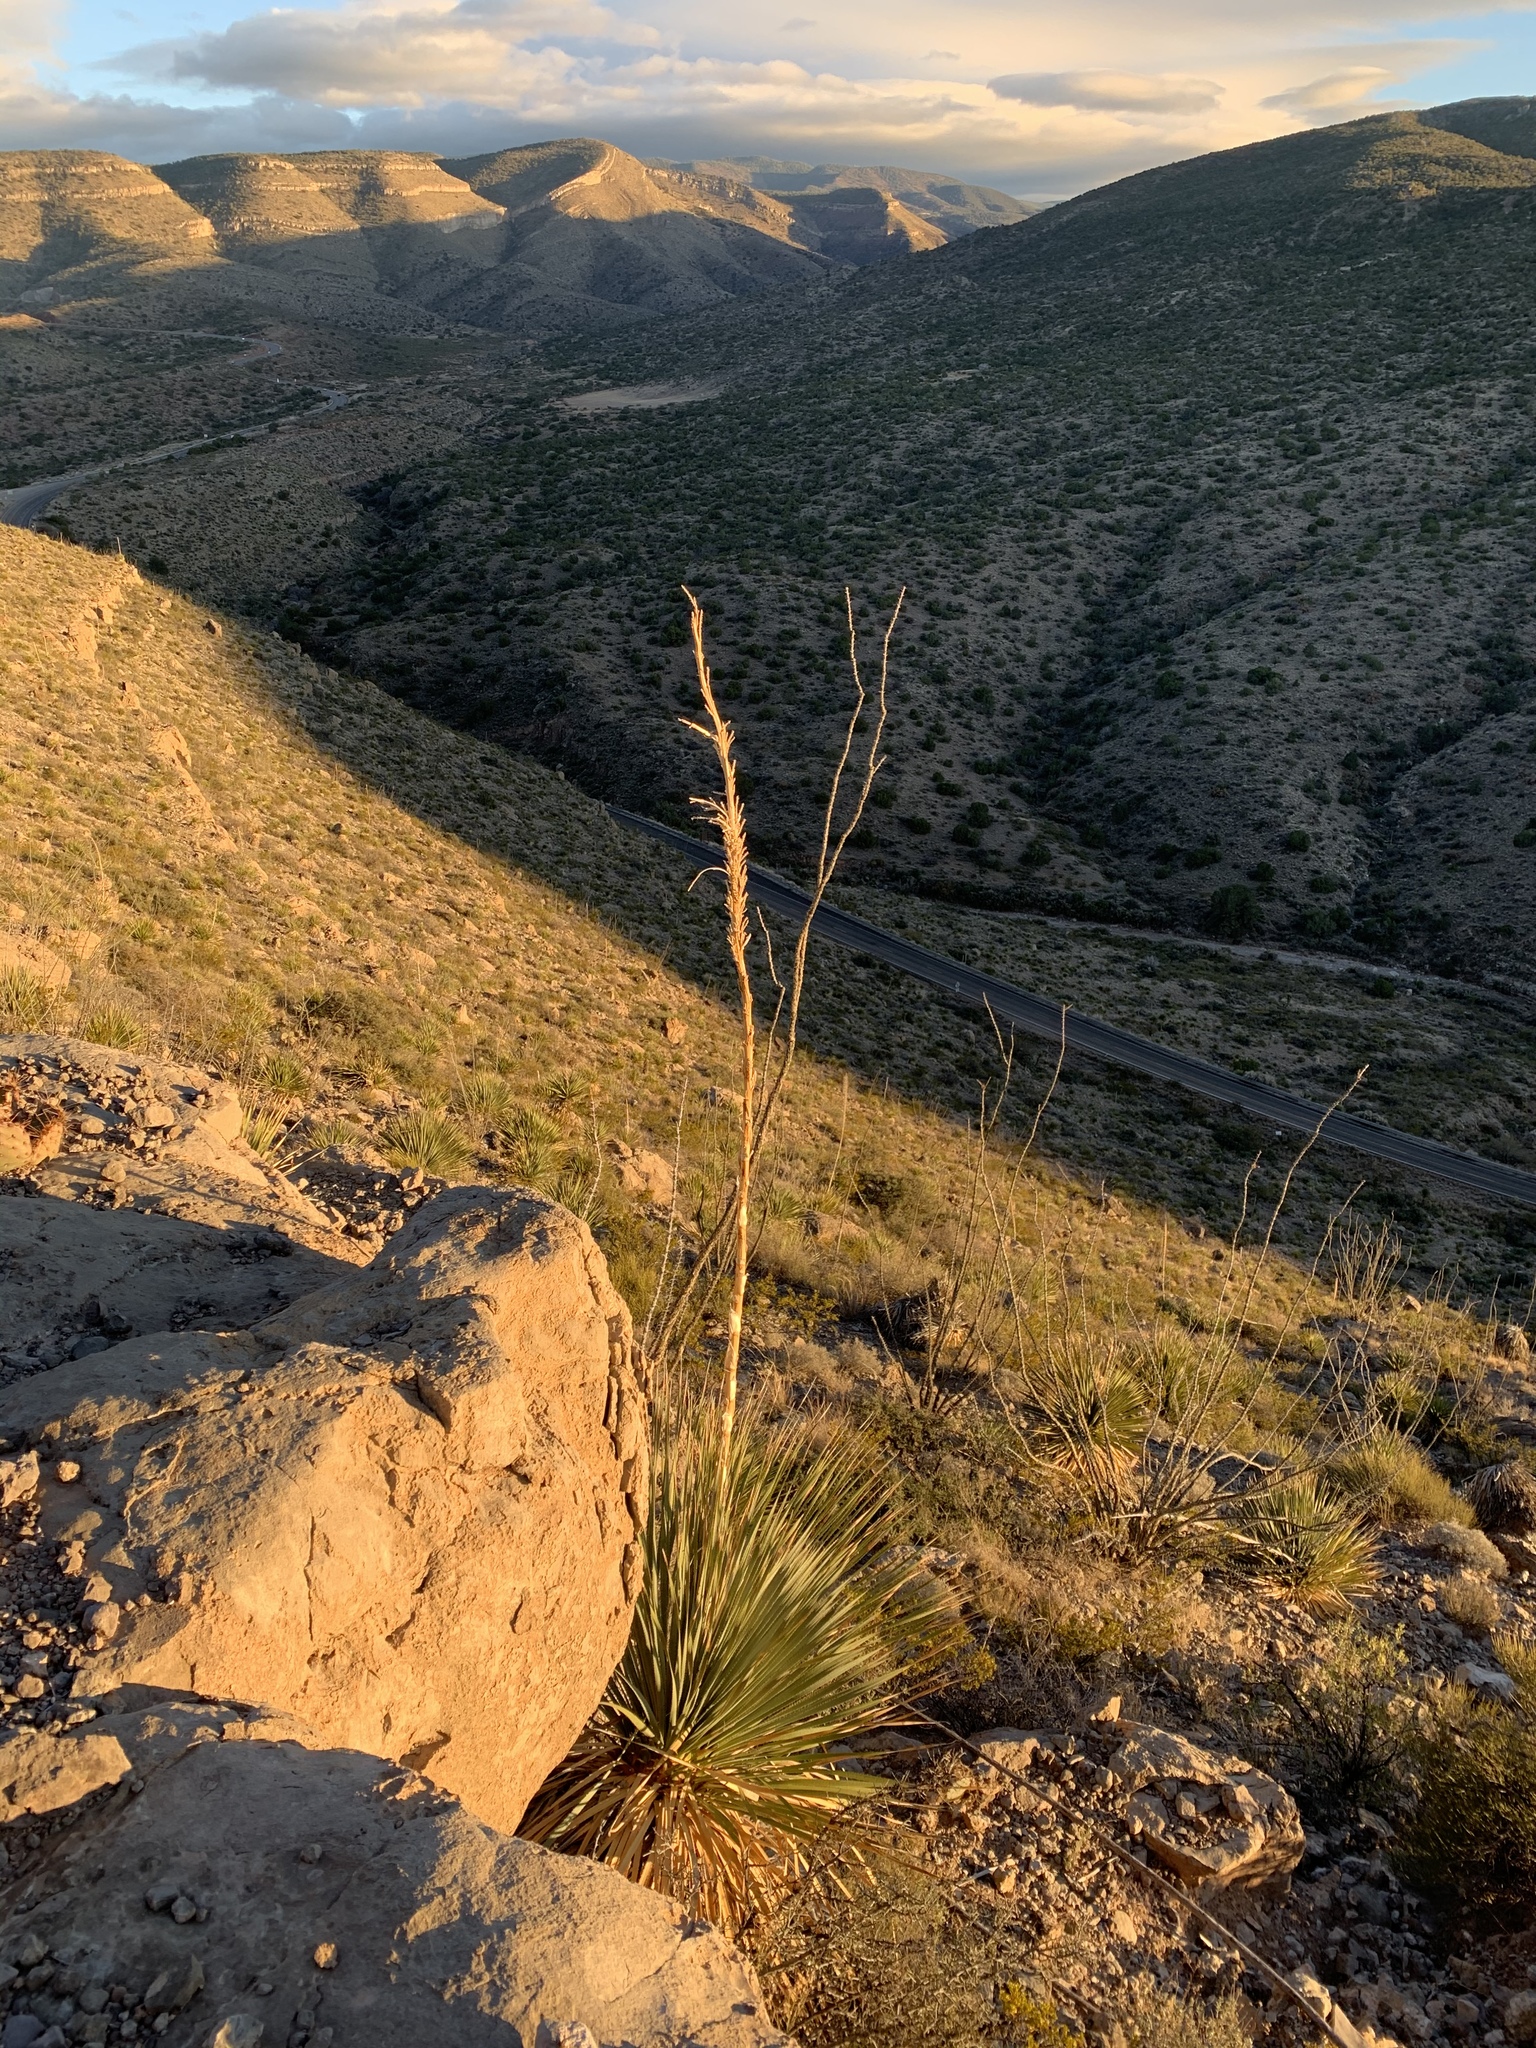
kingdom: Plantae
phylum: Tracheophyta
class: Liliopsida
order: Asparagales
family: Asparagaceae
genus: Dasylirion
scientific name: Dasylirion wheeleri
